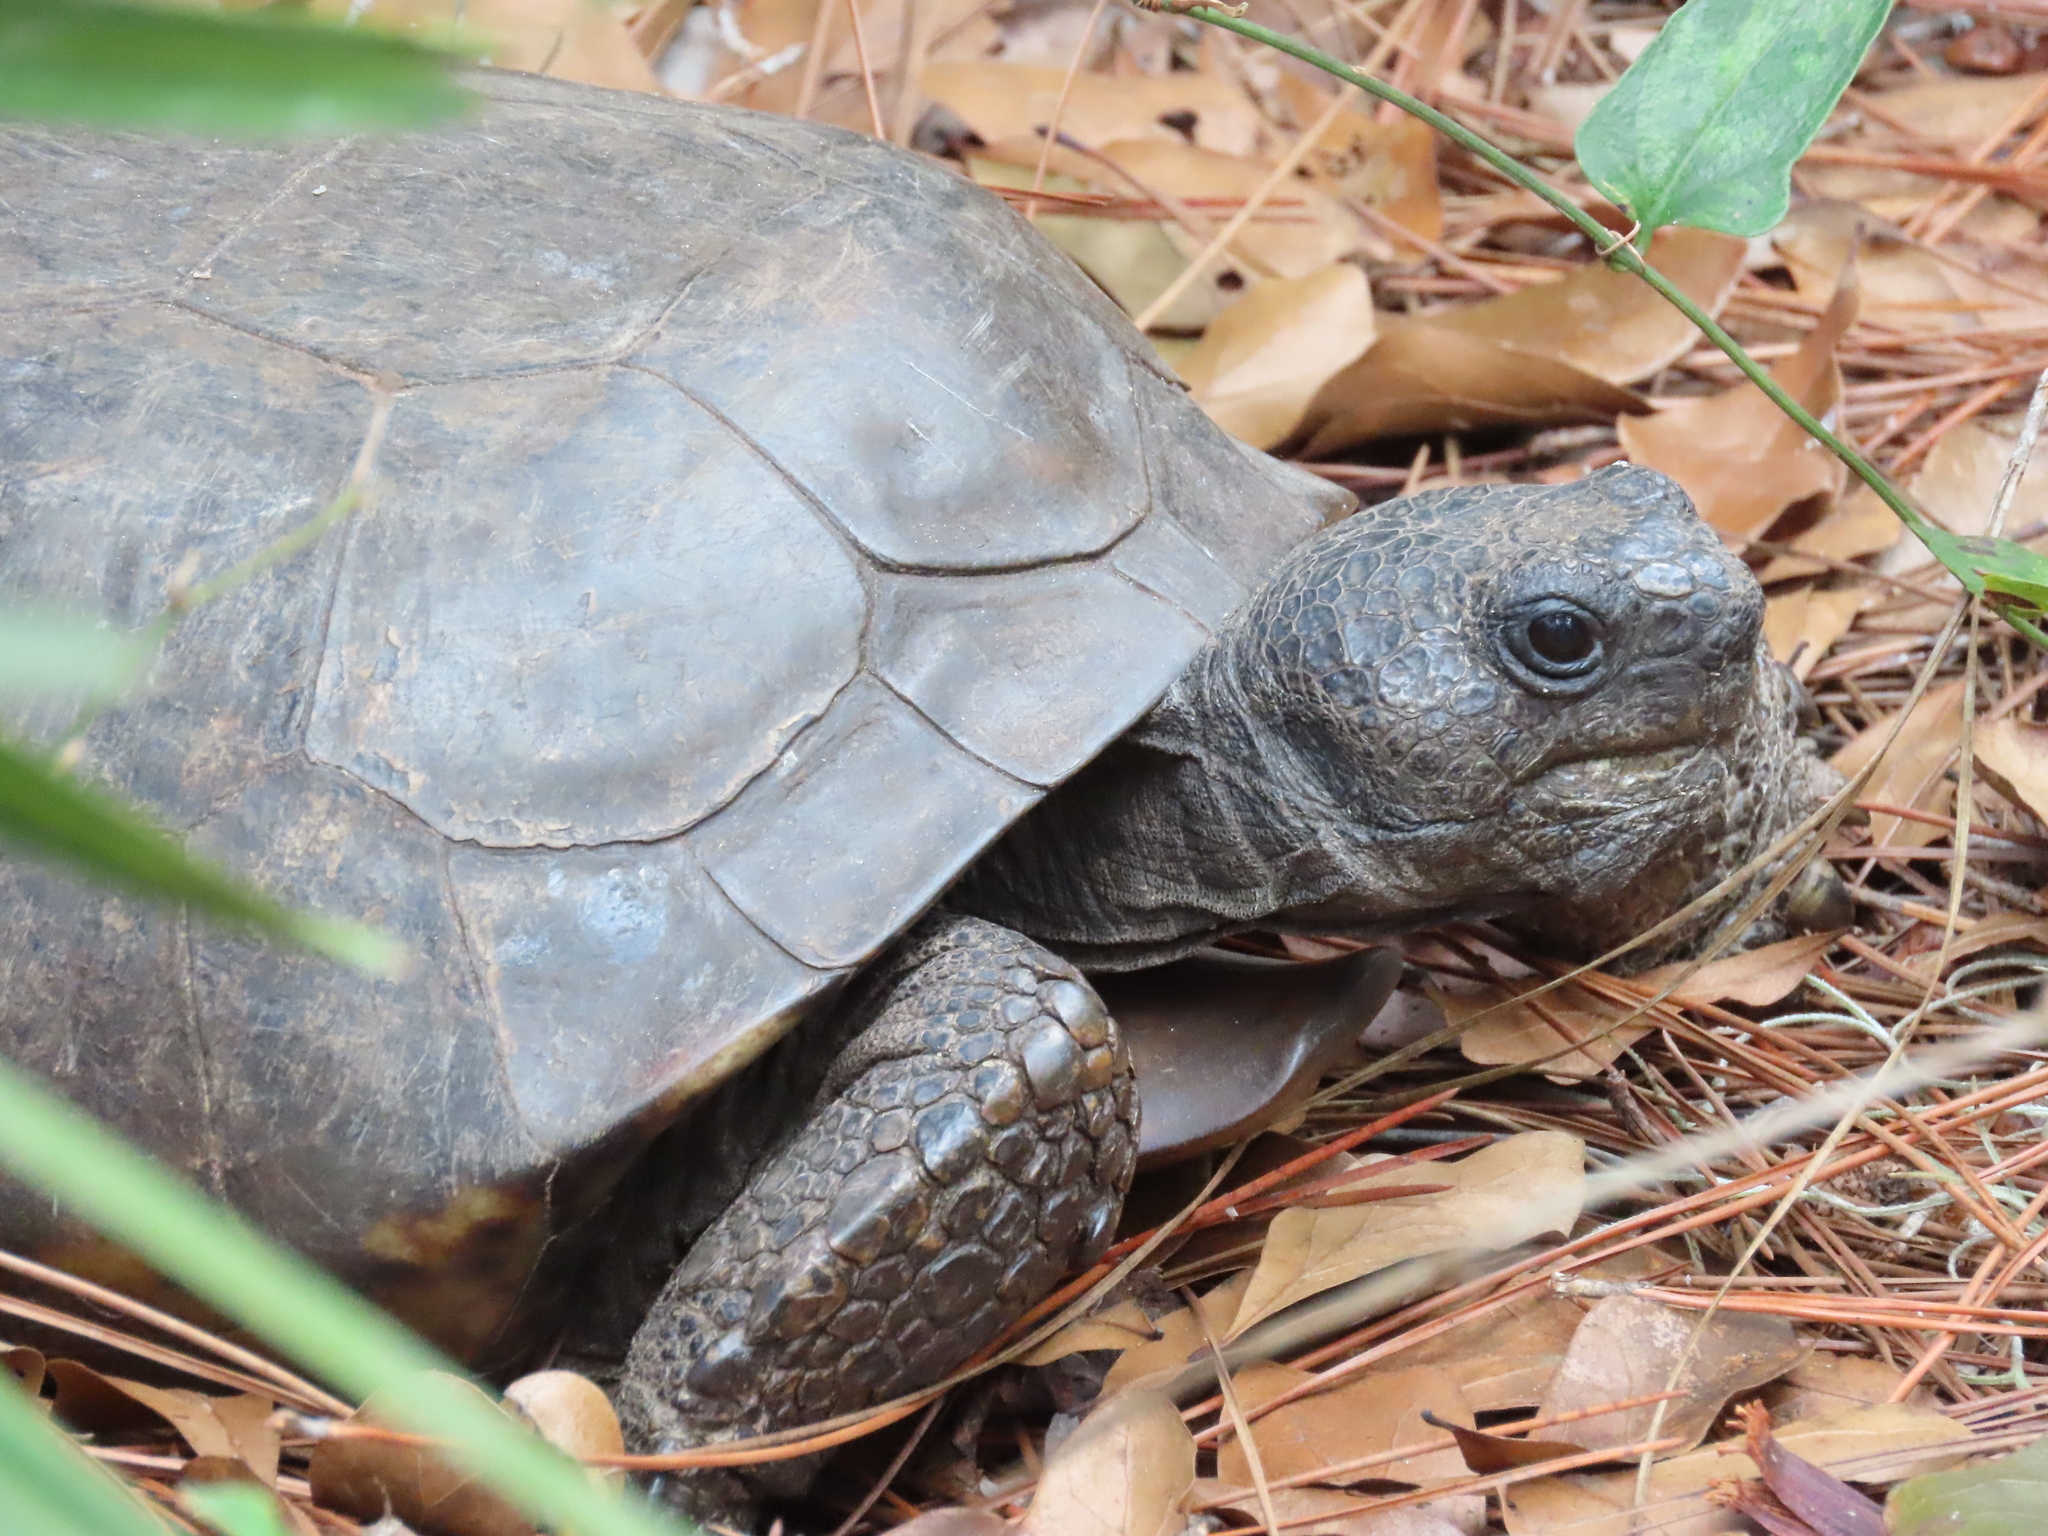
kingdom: Animalia
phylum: Chordata
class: Testudines
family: Testudinidae
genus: Gopherus
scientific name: Gopherus polyphemus
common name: Florida gopher tortoise
